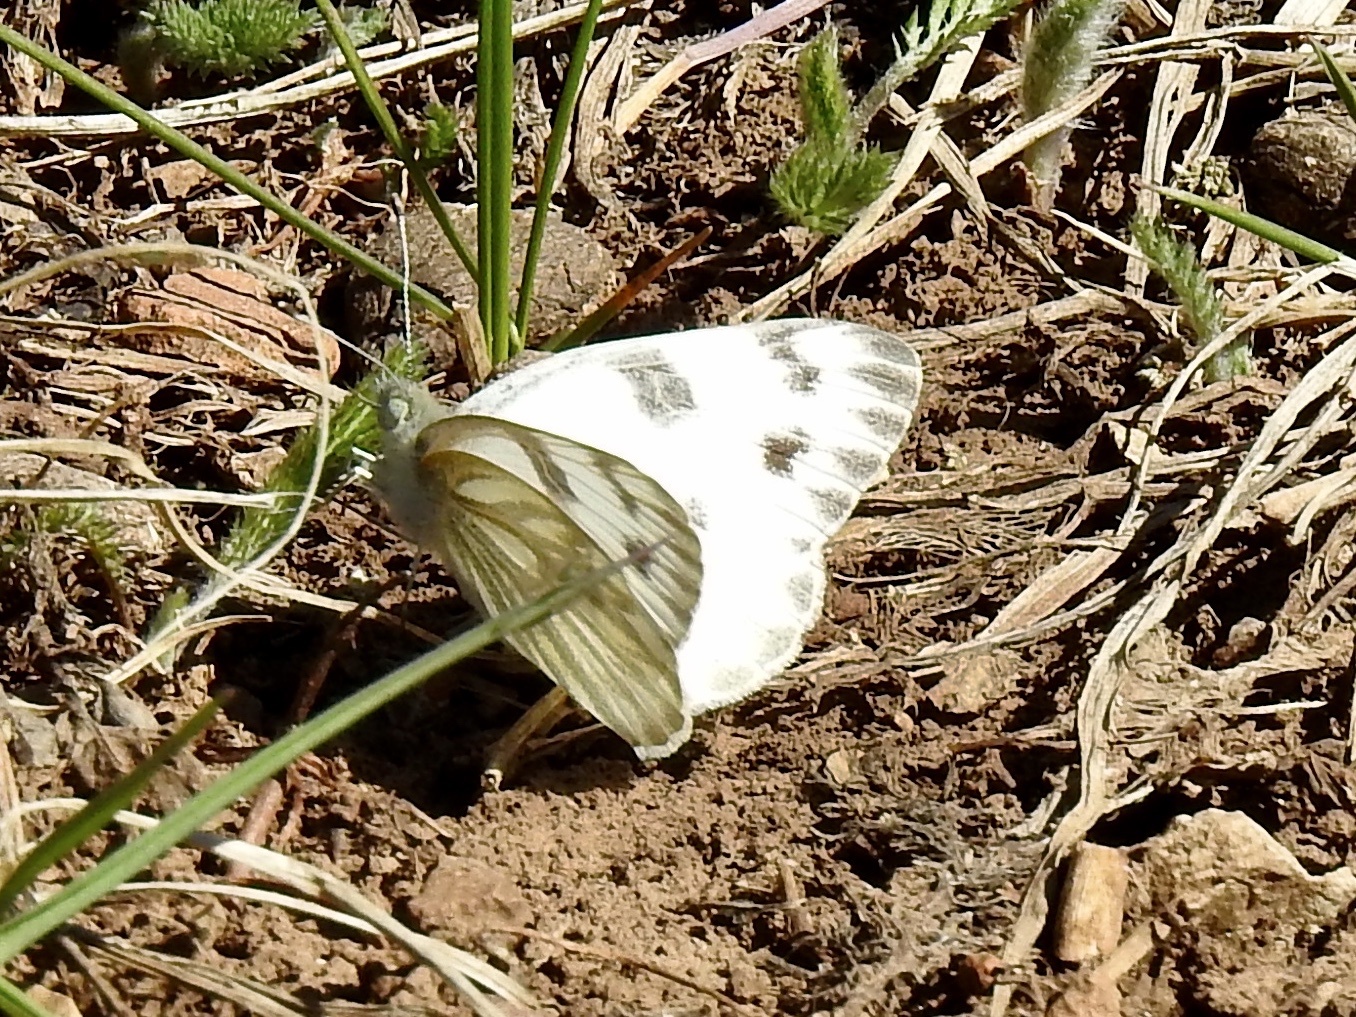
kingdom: Animalia
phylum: Arthropoda
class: Insecta
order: Lepidoptera
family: Pieridae
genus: Pontia
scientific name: Pontia protodice
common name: Checkered white
